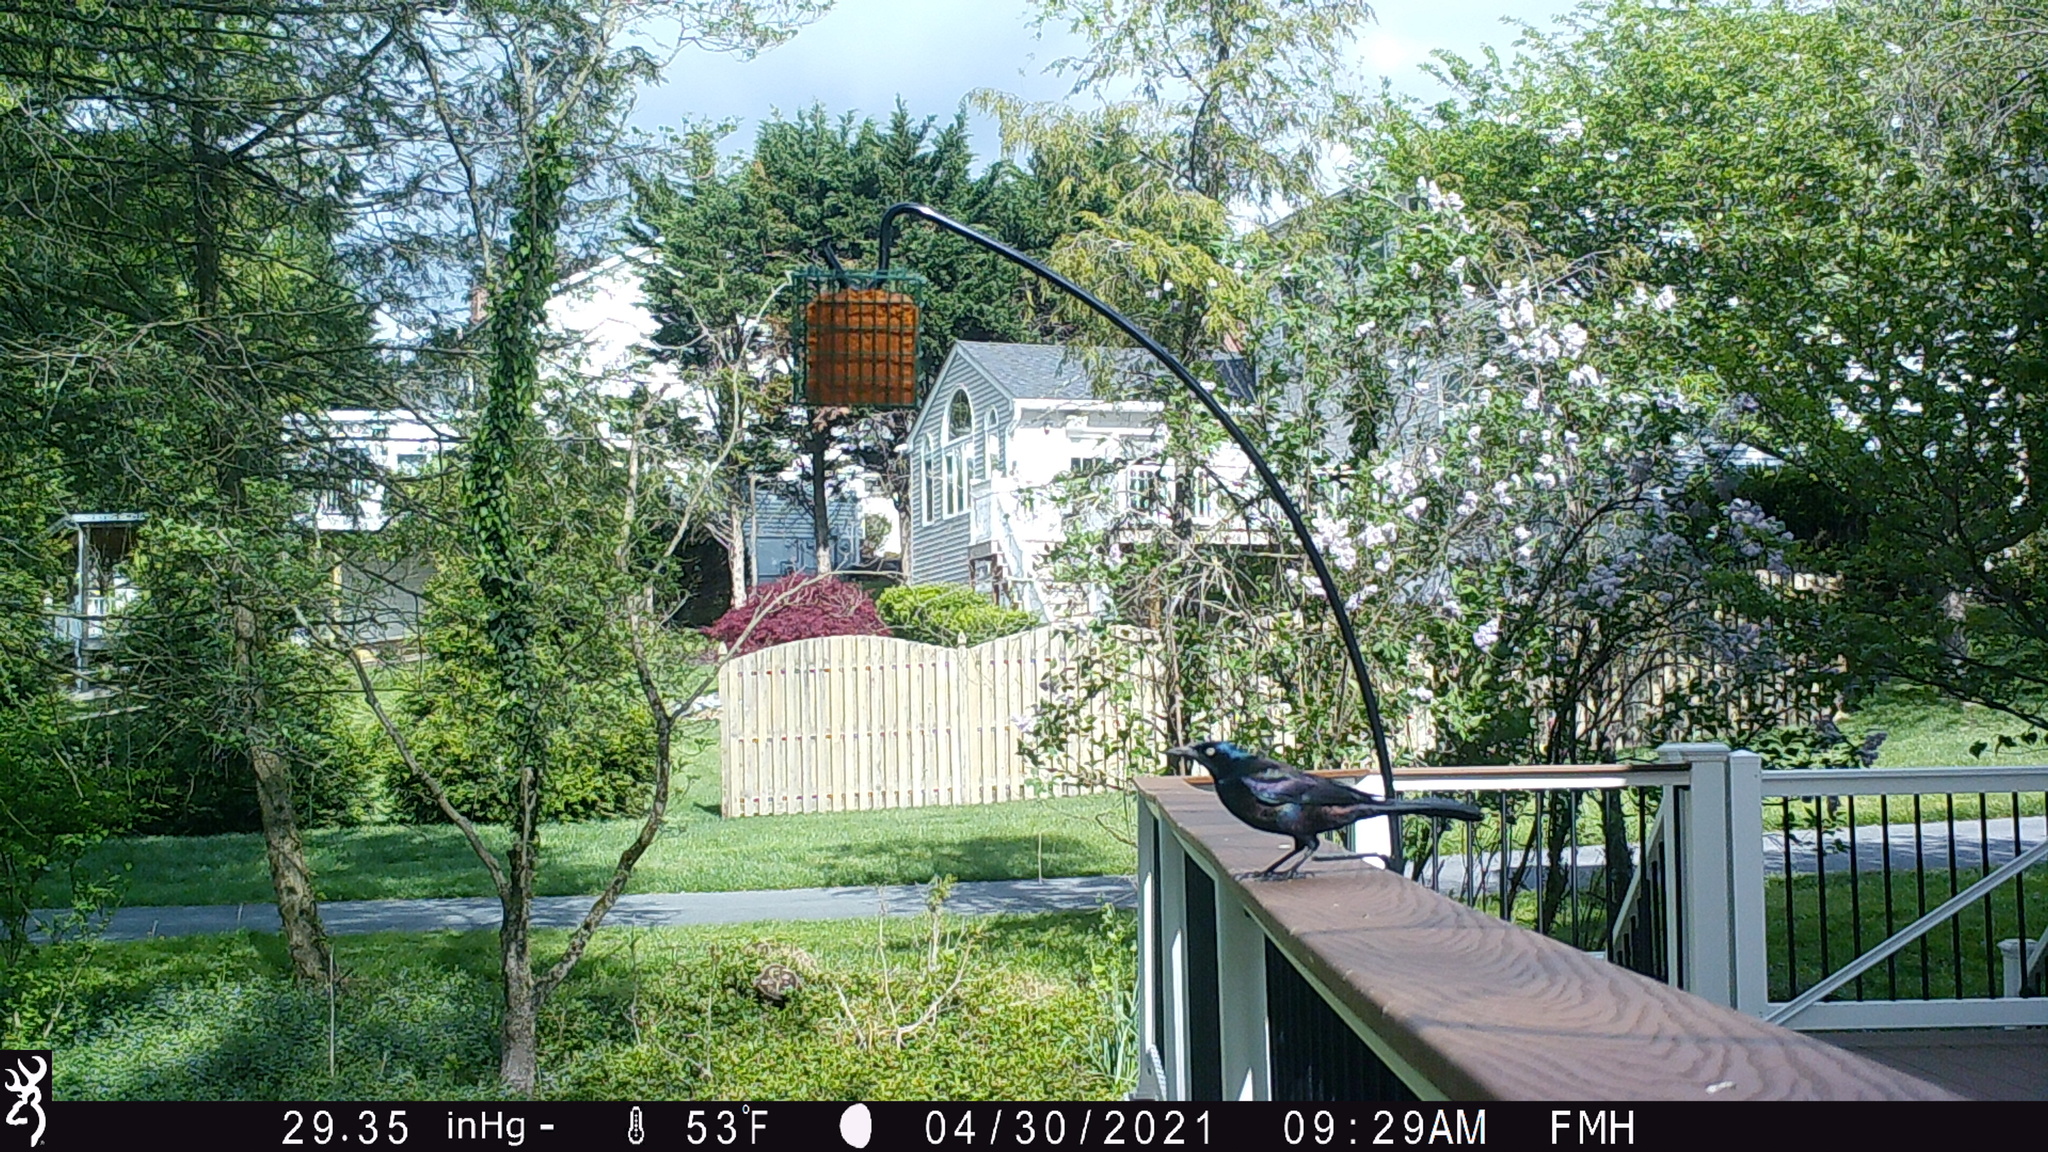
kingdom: Animalia
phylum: Chordata
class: Aves
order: Passeriformes
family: Icteridae
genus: Quiscalus
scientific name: Quiscalus quiscula
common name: Common grackle
